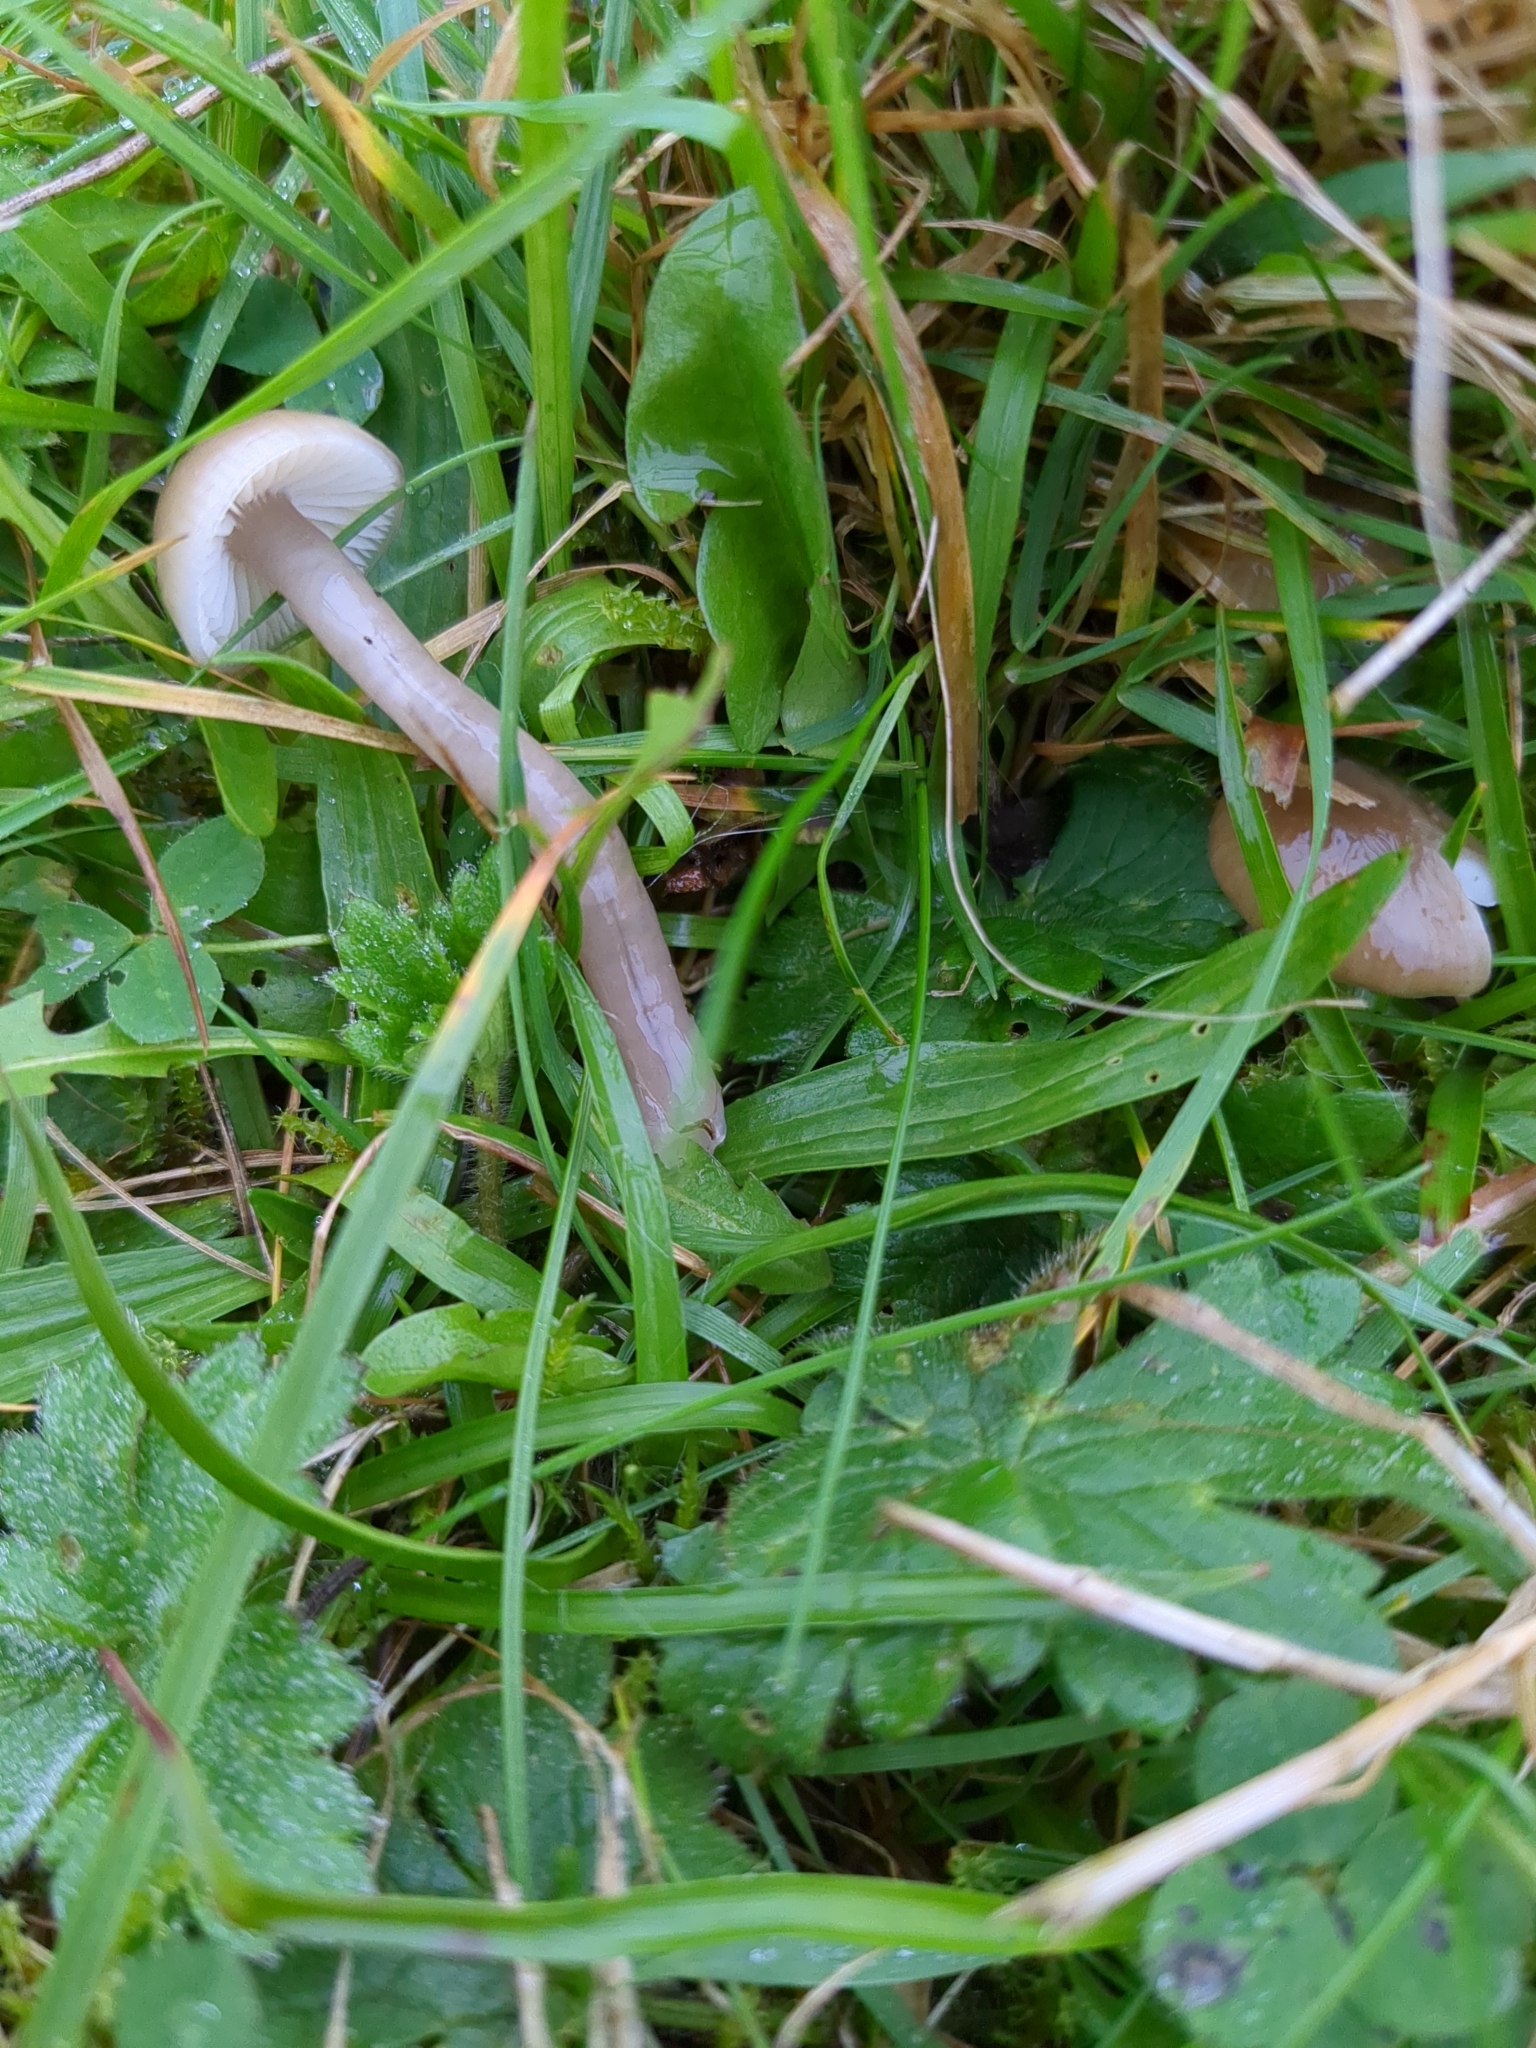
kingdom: Fungi
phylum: Basidiomycota
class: Agaricomycetes
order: Agaricales
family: Hygrophoraceae
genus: Gliophorus
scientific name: Gliophorus irrigatus
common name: Slimy waxcap
